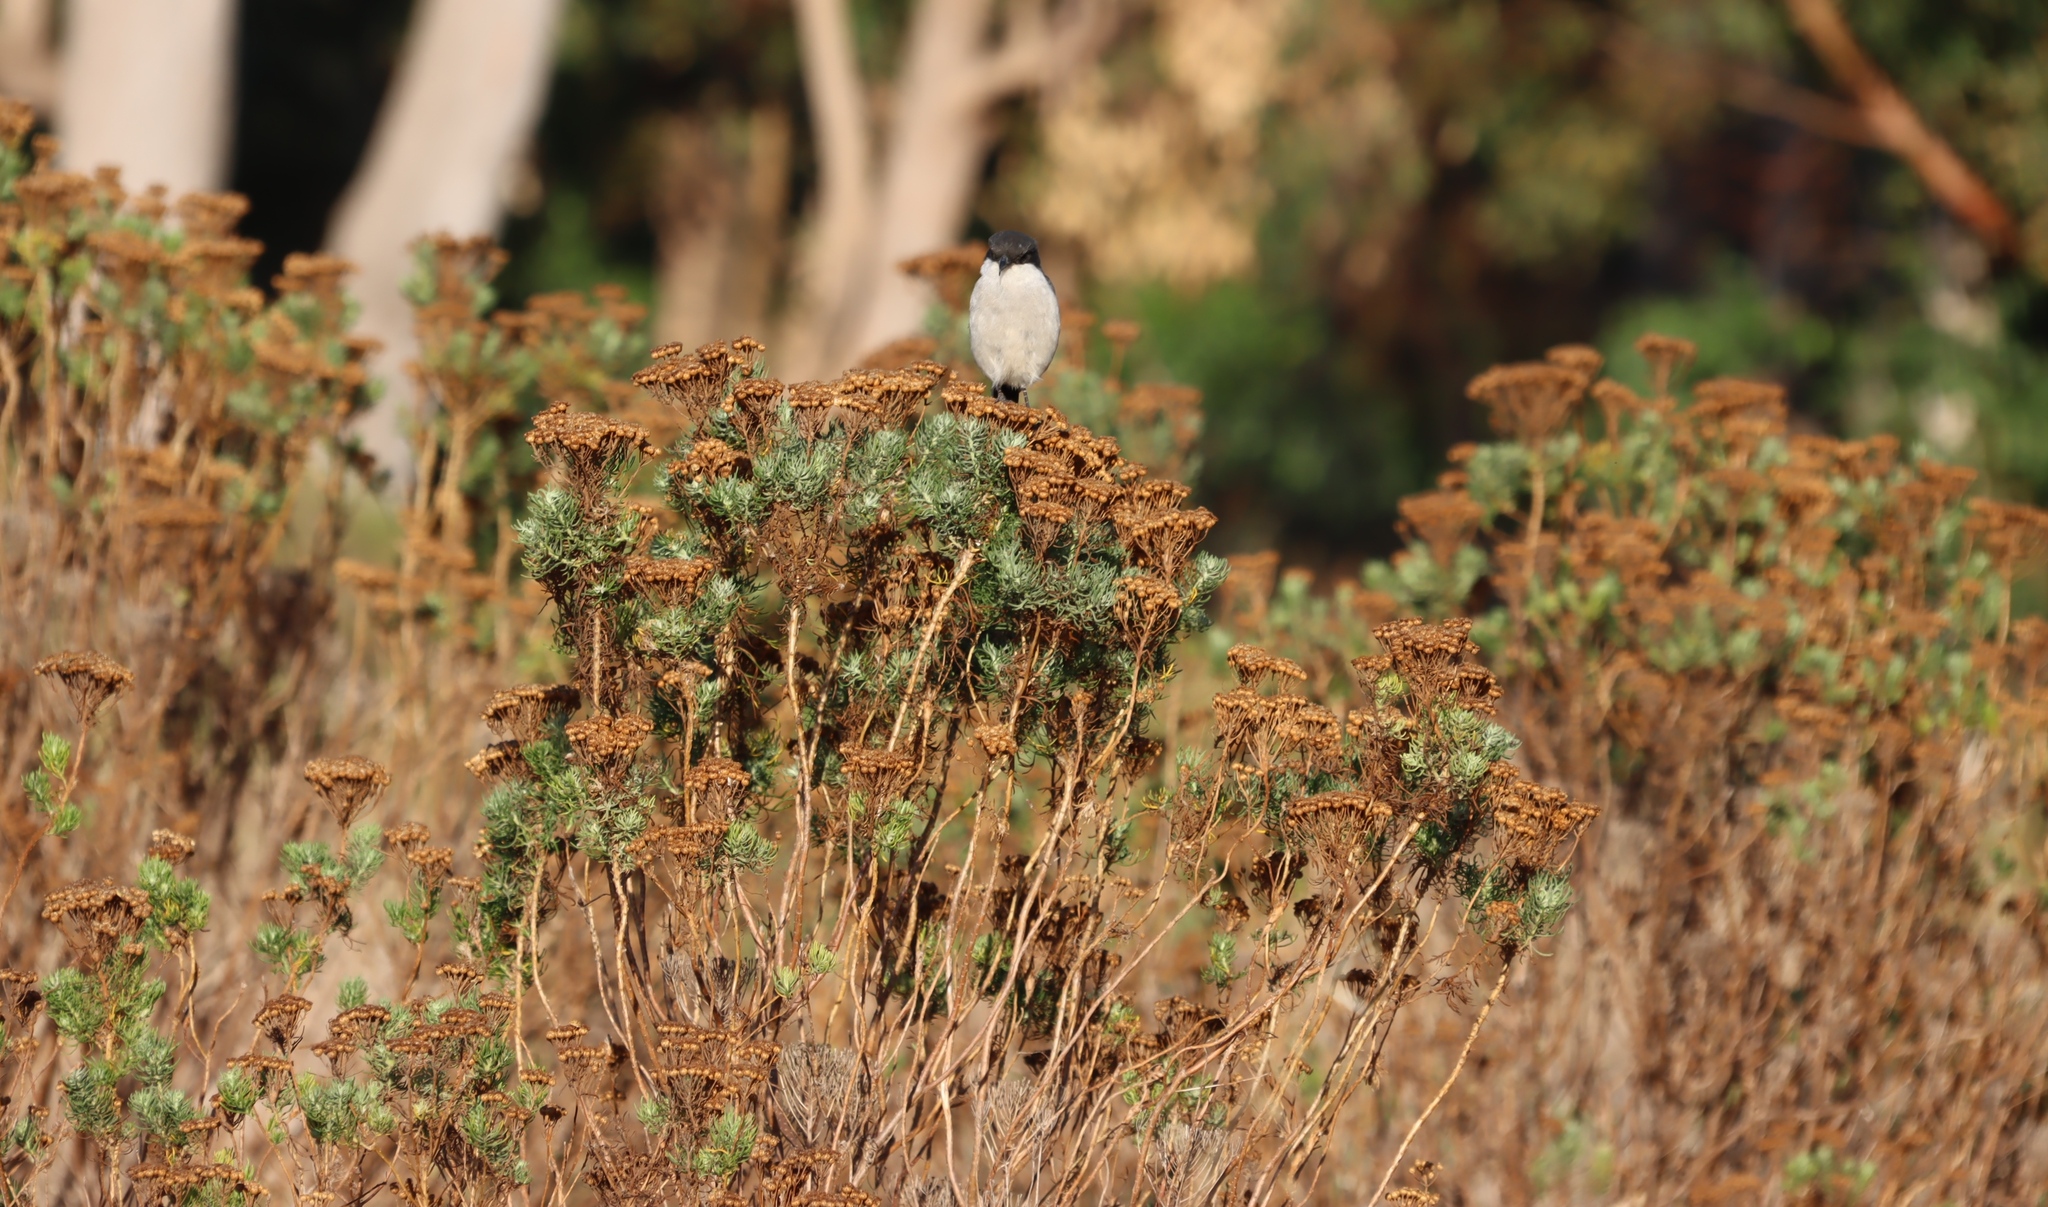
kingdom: Animalia
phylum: Chordata
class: Aves
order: Passeriformes
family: Laniidae
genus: Lanius
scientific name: Lanius collaris
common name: Southern fiscal
